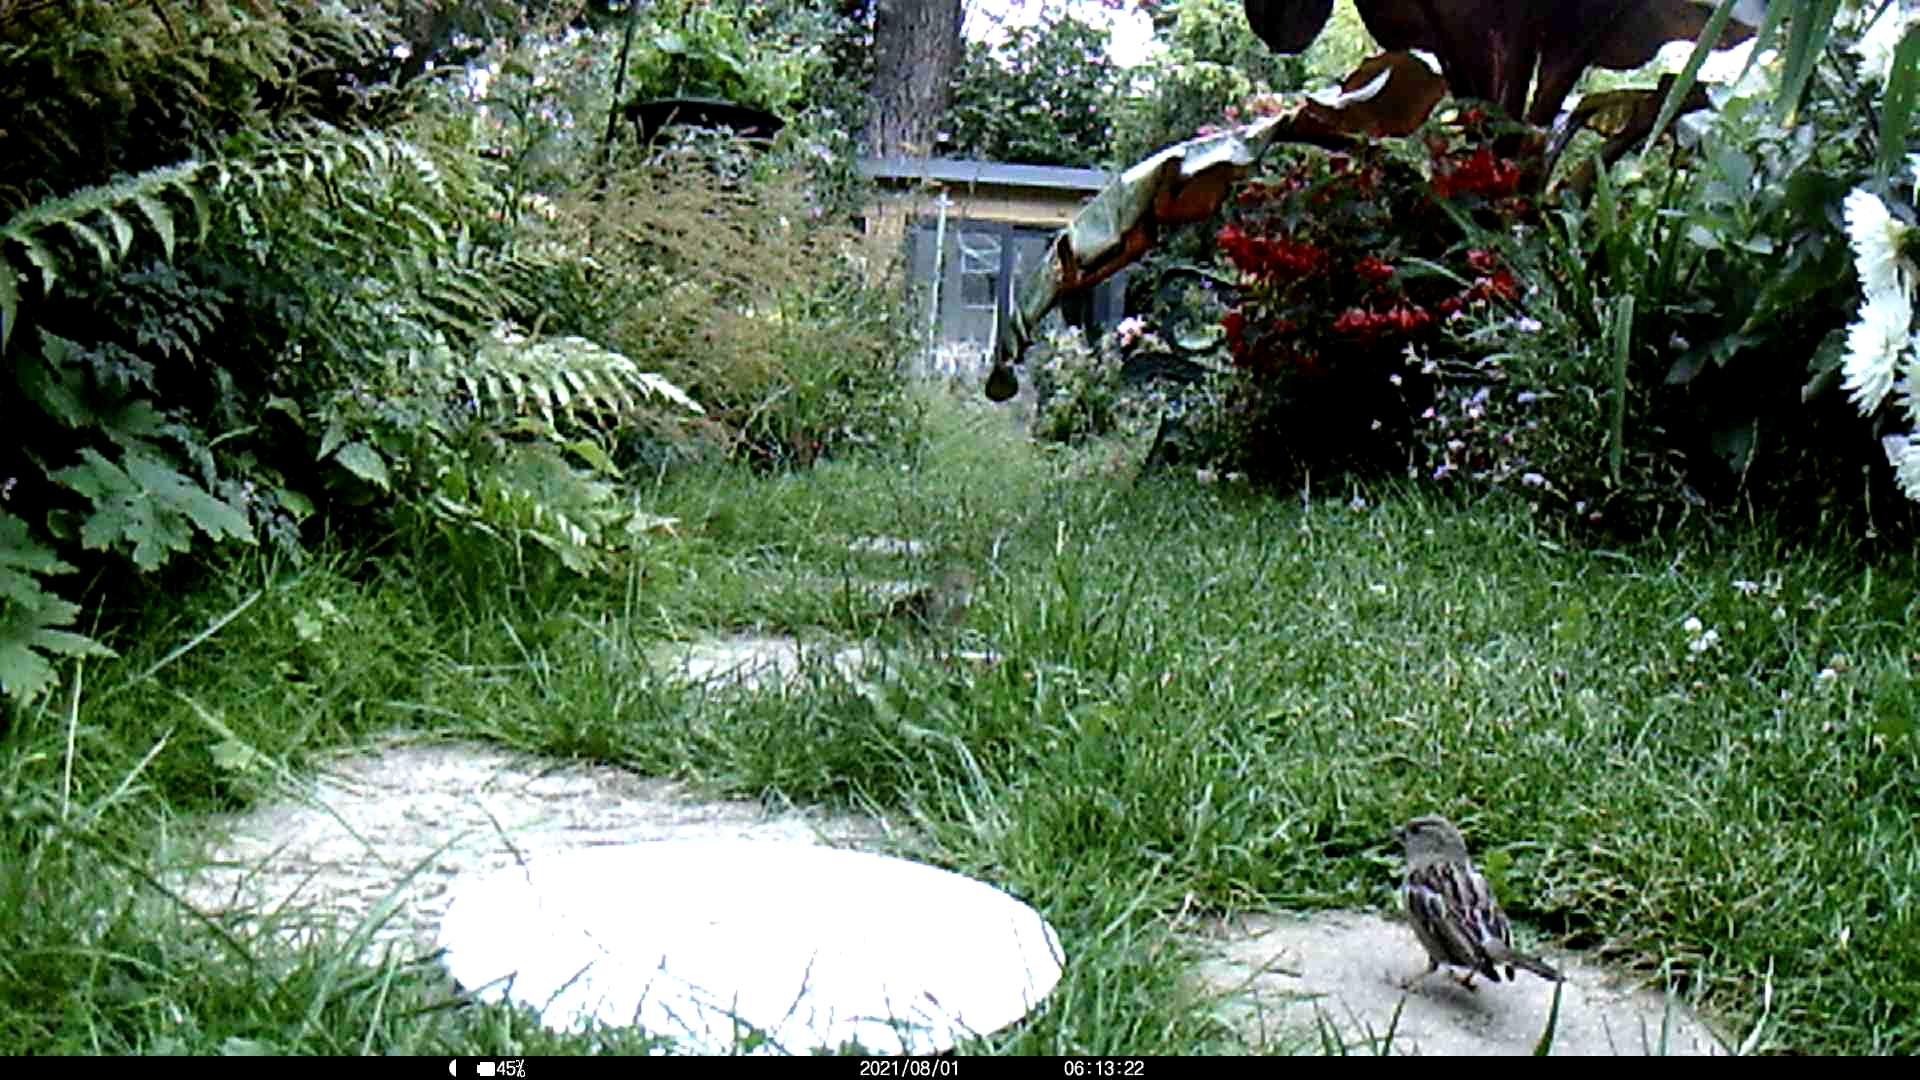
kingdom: Animalia
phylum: Chordata
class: Aves
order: Passeriformes
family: Passeridae
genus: Passer
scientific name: Passer domesticus
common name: House sparrow
